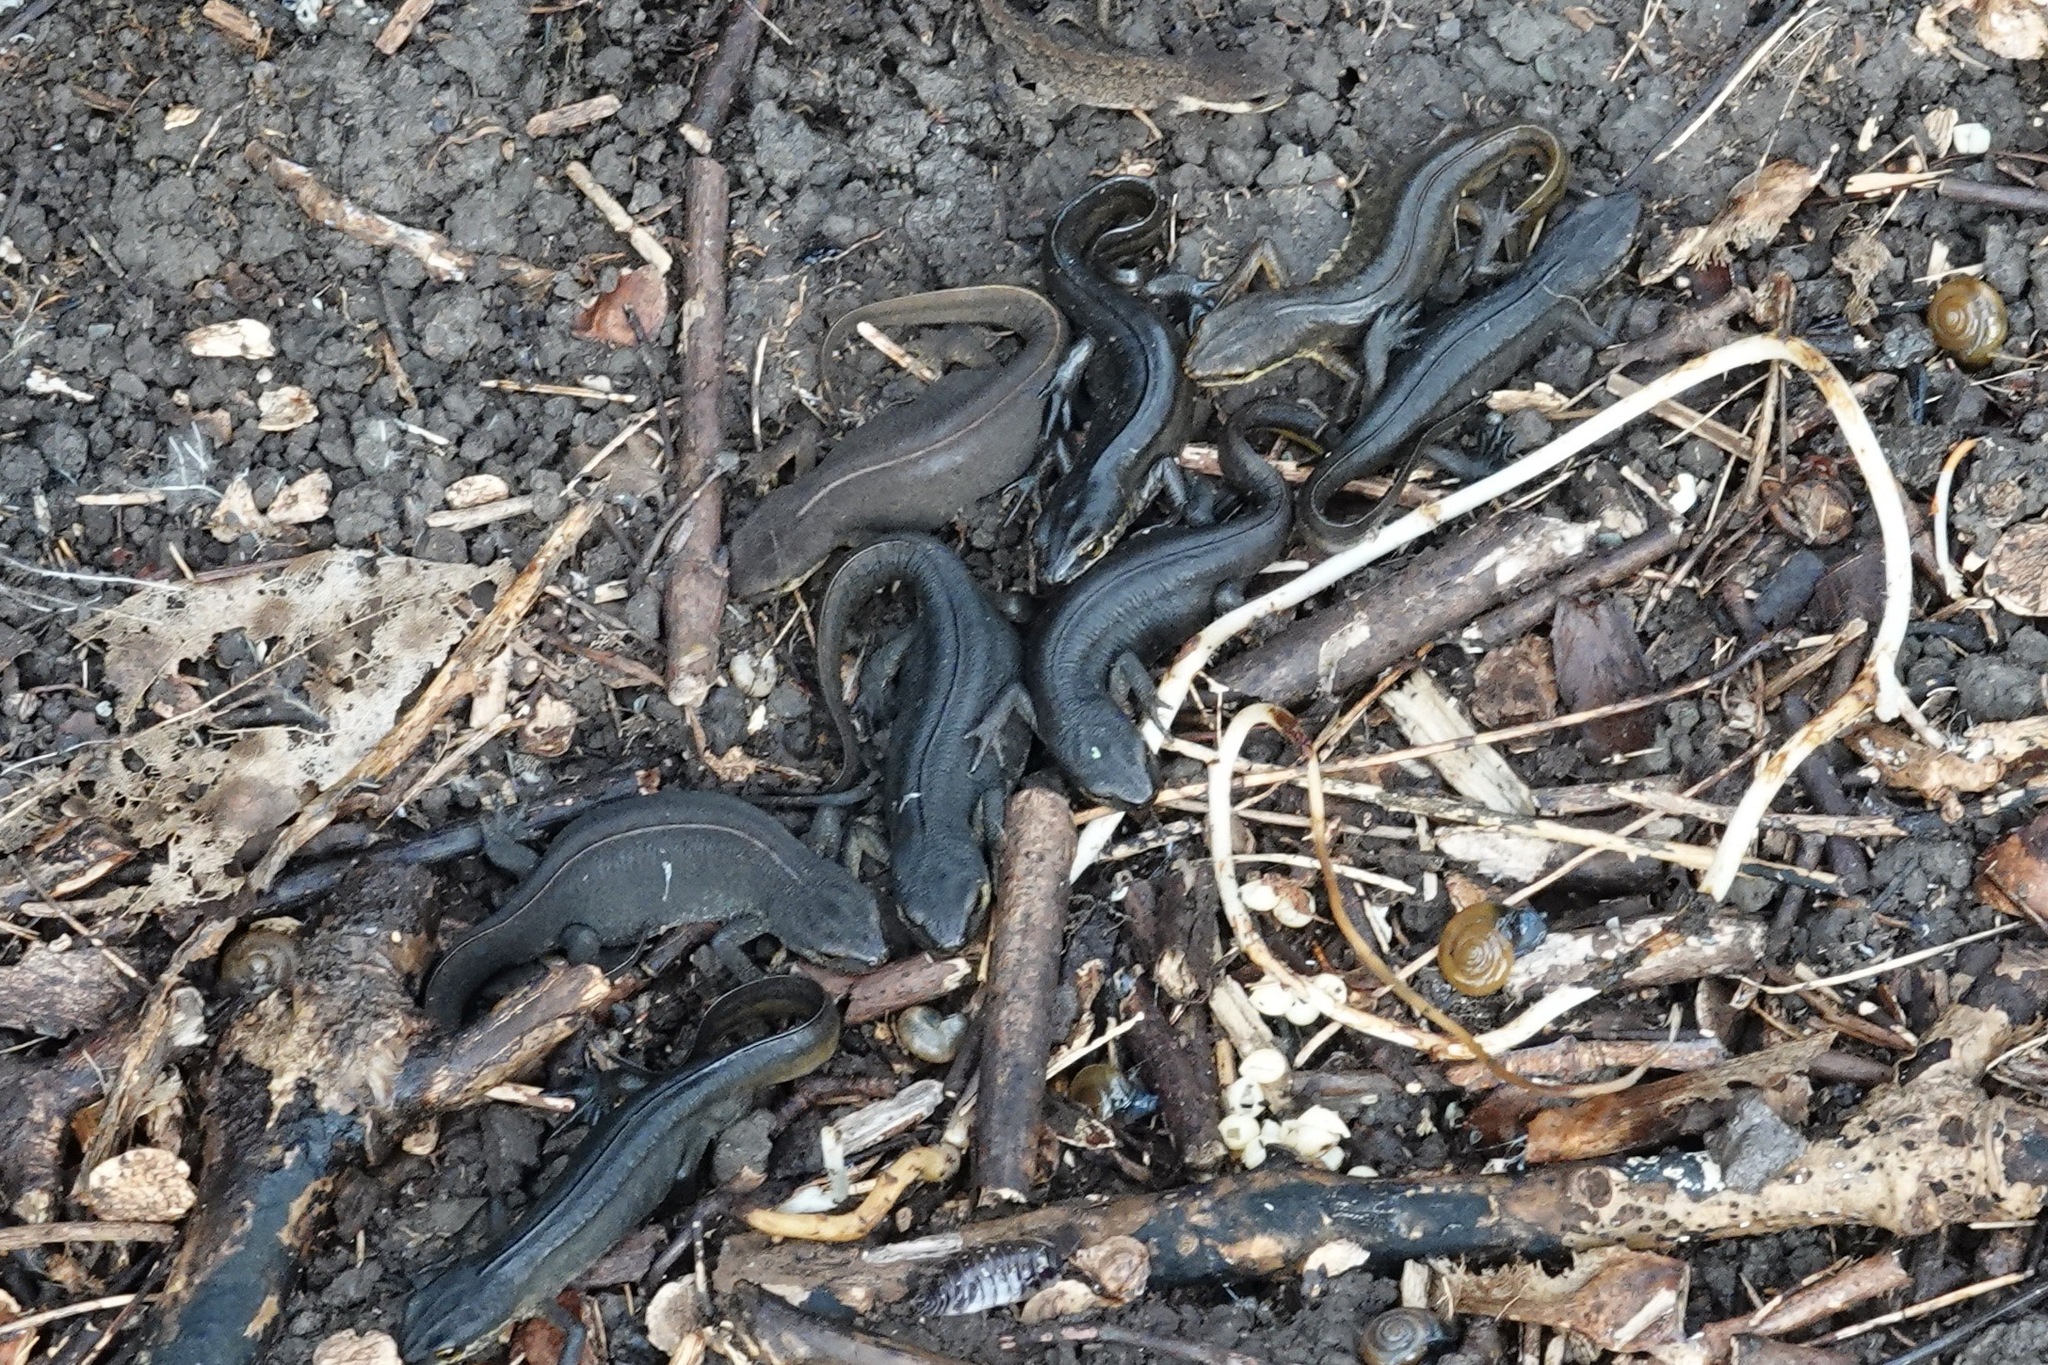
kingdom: Animalia
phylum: Chordata
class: Amphibia
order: Caudata
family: Salamandridae
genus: Lissotriton
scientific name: Lissotriton helveticus
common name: Palmate newt
